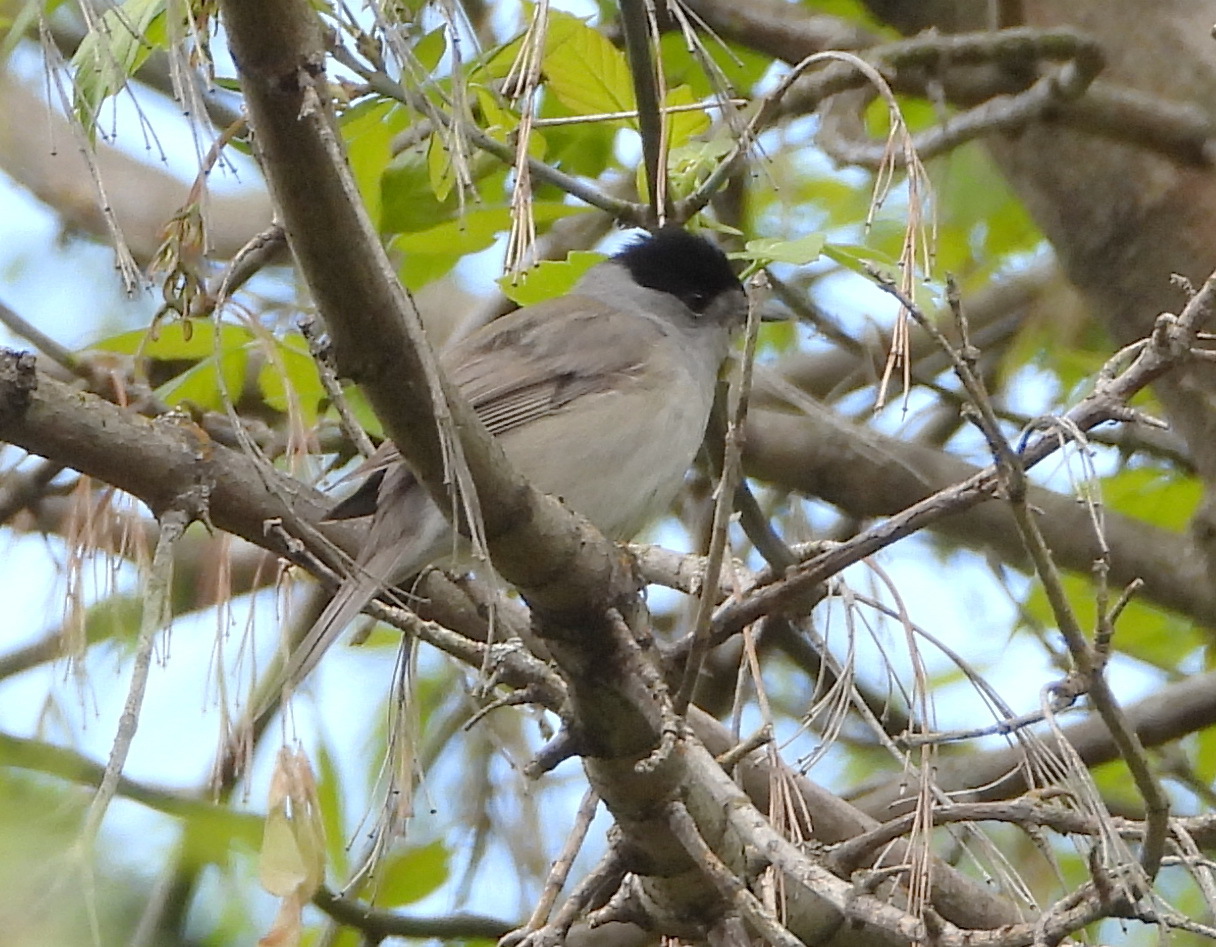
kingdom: Animalia
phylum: Chordata
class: Aves
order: Passeriformes
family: Sylviidae
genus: Sylvia
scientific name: Sylvia atricapilla
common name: Eurasian blackcap
